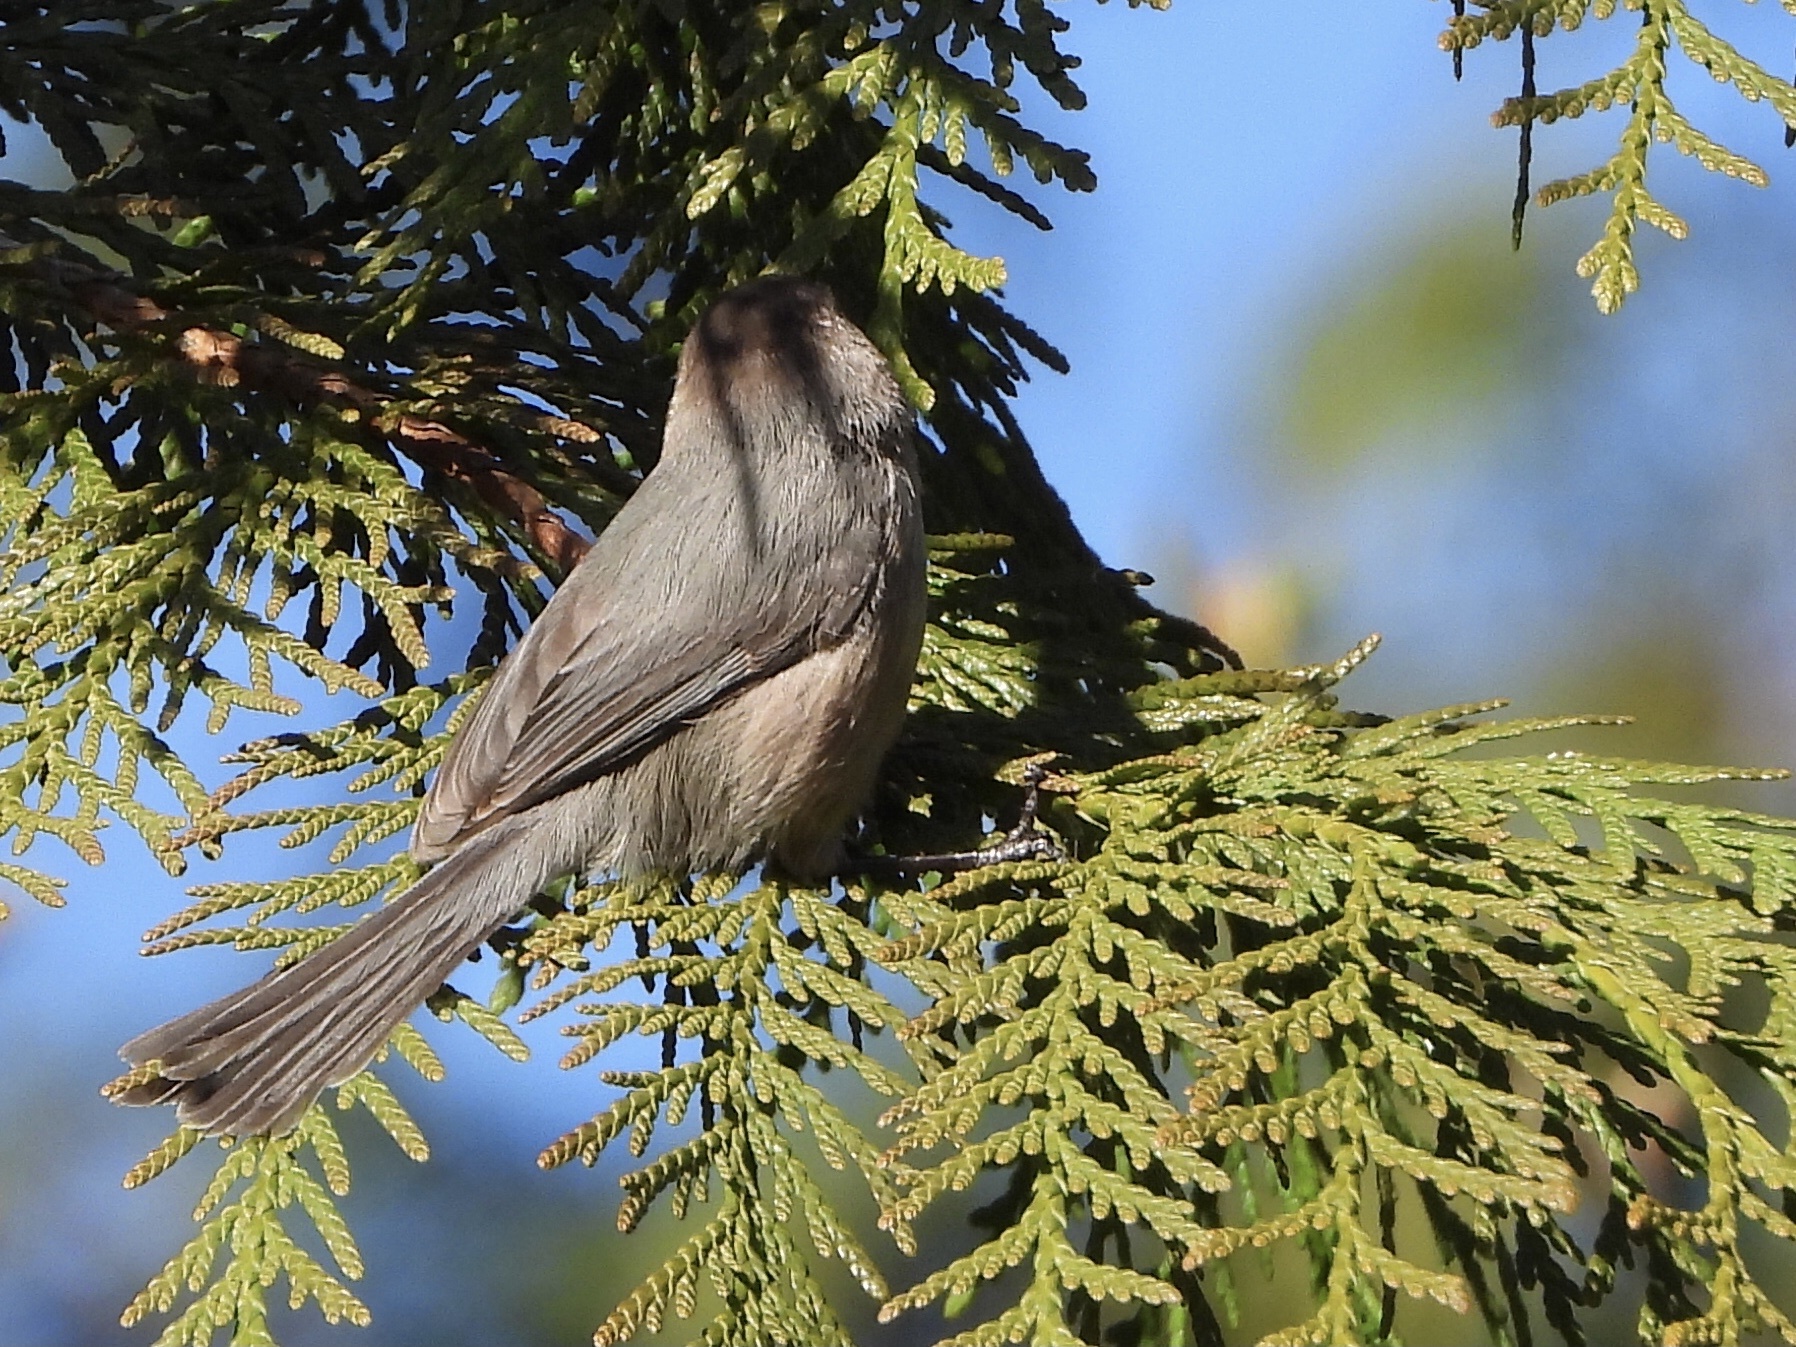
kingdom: Animalia
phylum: Chordata
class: Aves
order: Passeriformes
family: Aegithalidae
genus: Psaltriparus
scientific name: Psaltriparus minimus
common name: American bushtit
